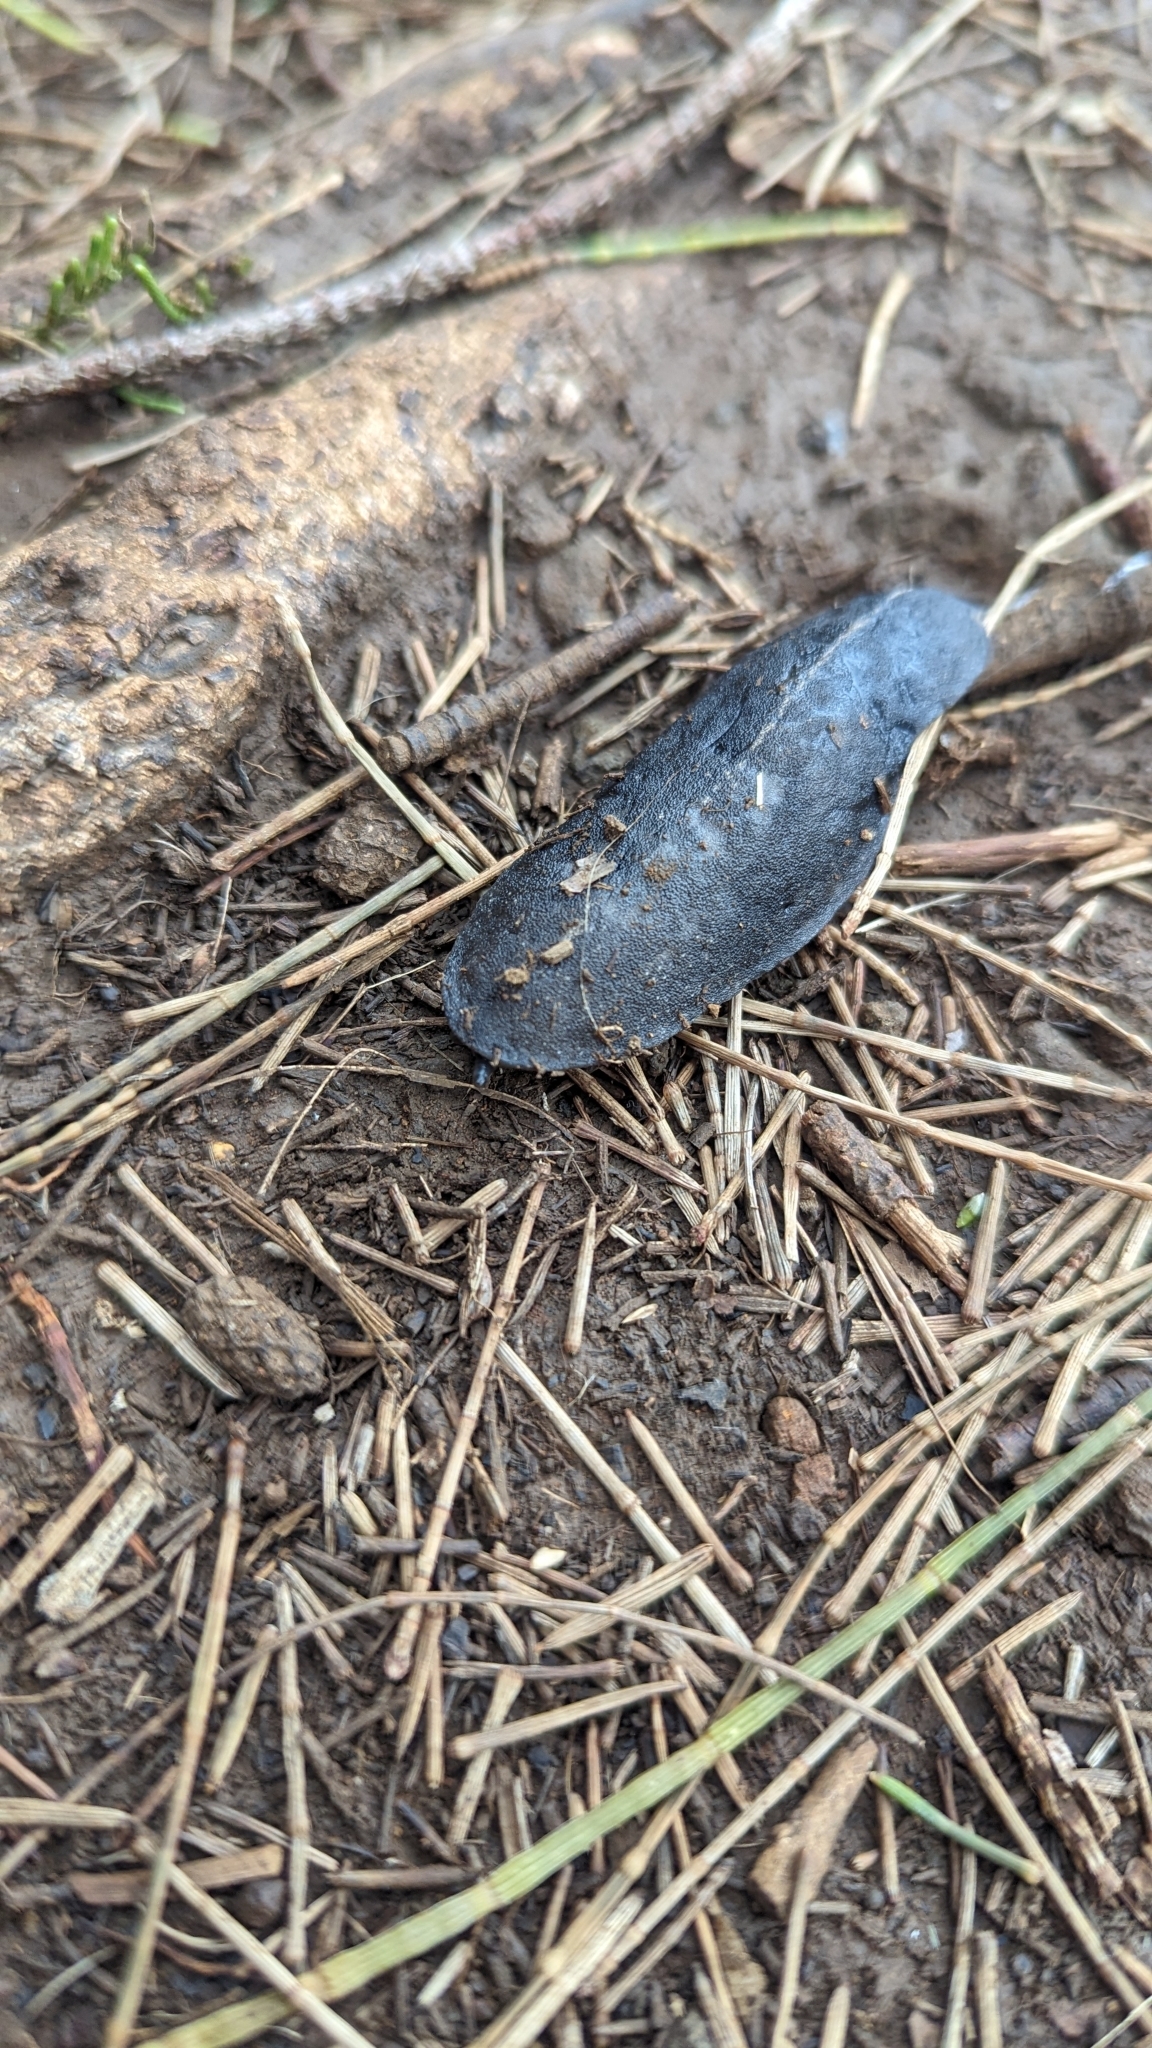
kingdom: Animalia
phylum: Mollusca
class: Gastropoda
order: Systellommatophora
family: Veronicellidae
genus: Laevicaulis
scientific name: Laevicaulis alte
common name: Tropical leatherleaf
